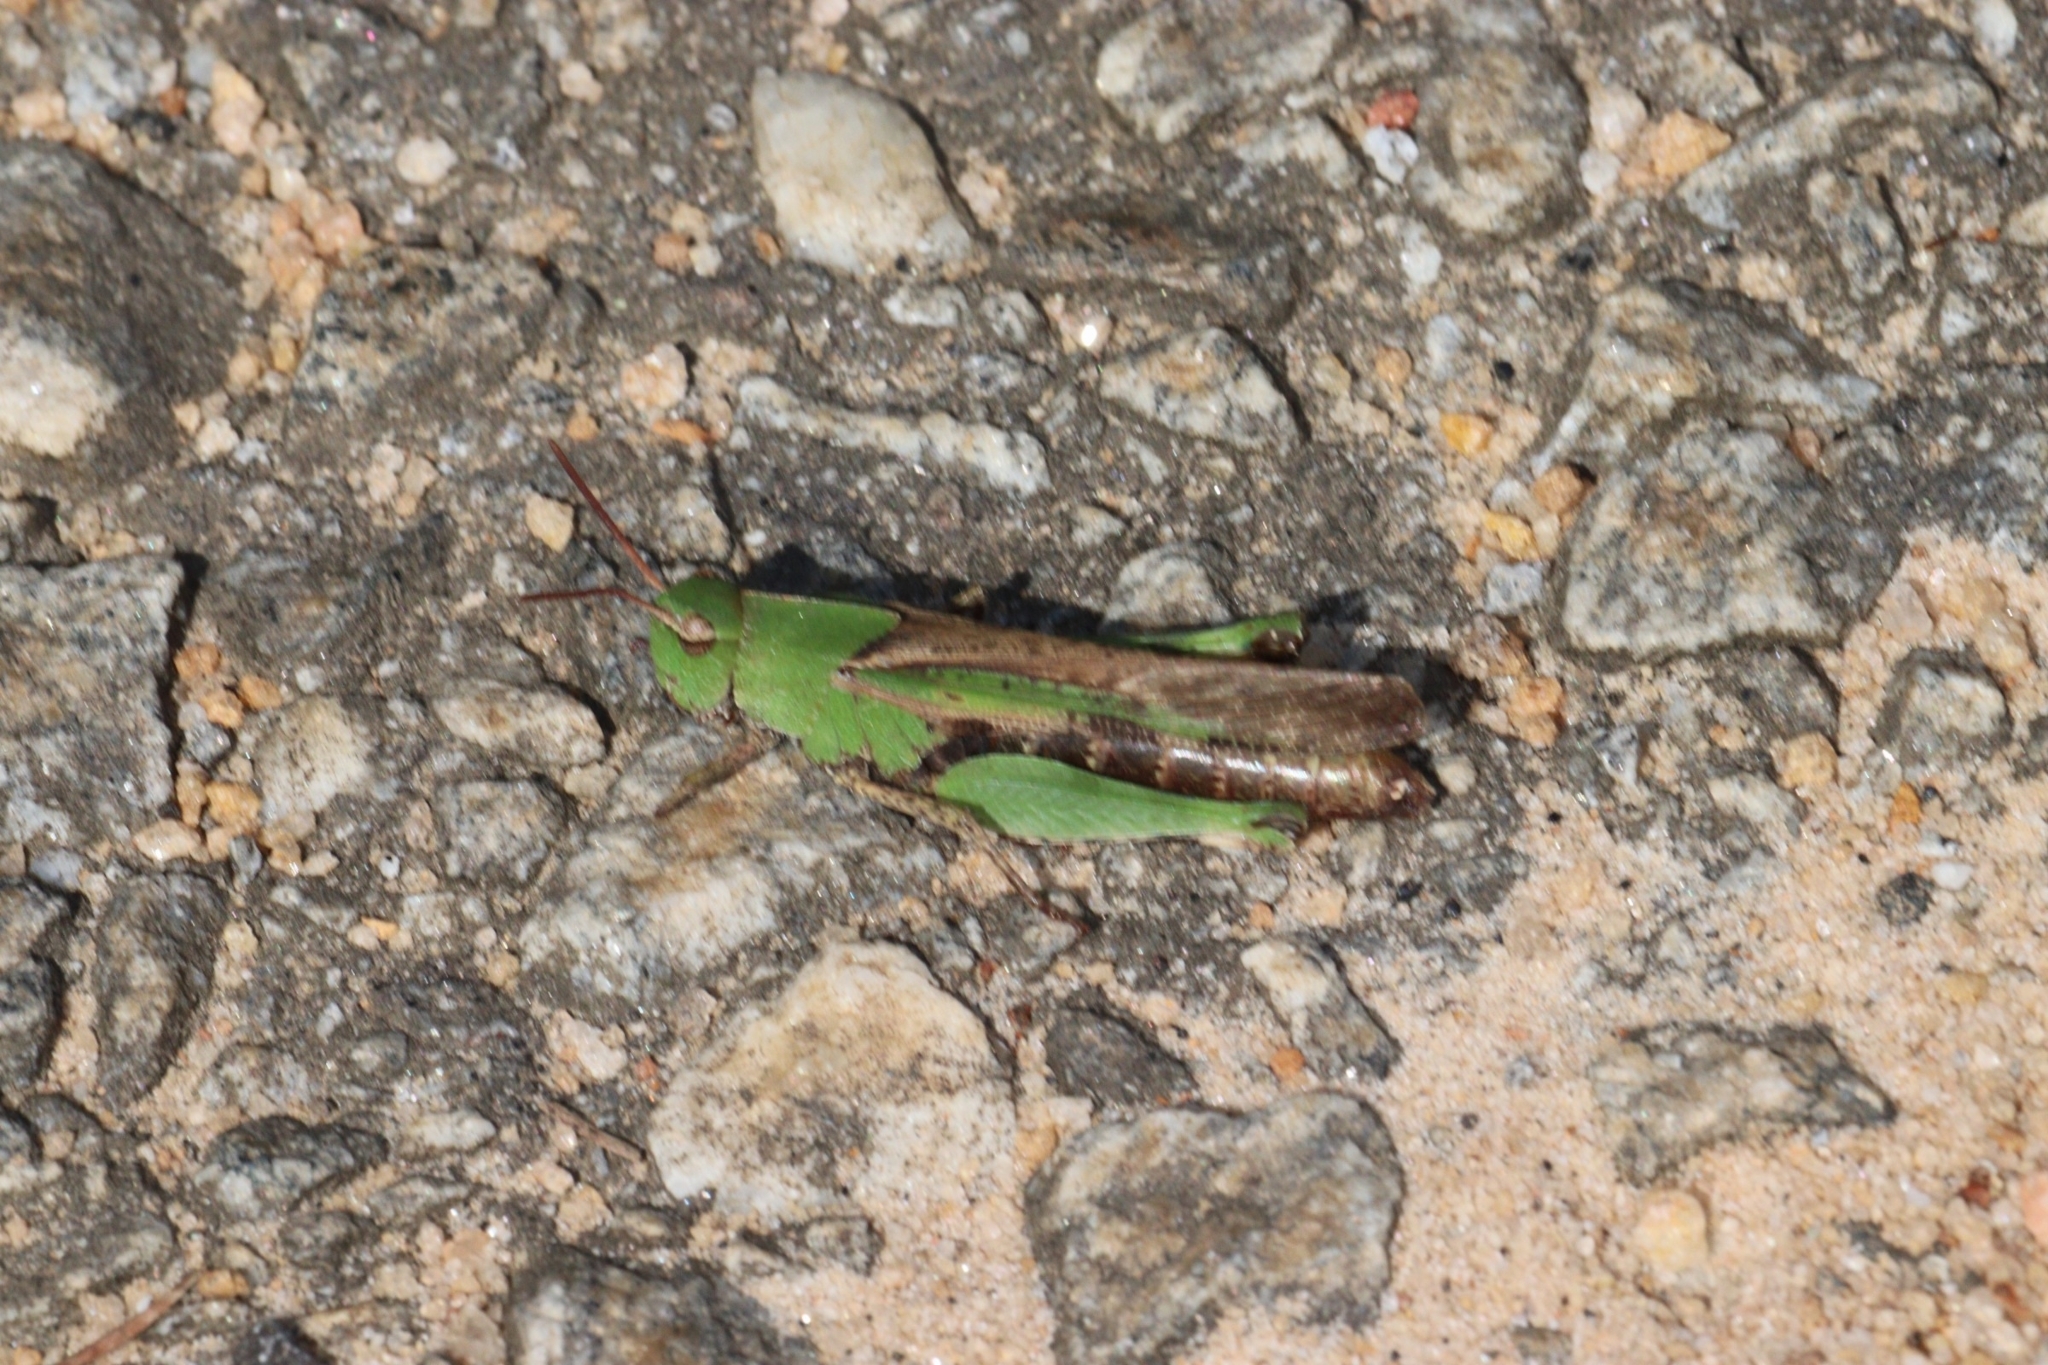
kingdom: Animalia
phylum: Arthropoda
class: Insecta
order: Orthoptera
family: Acrididae
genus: Chortophaga
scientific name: Chortophaga viridifasciata
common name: Green-striped grasshopper
